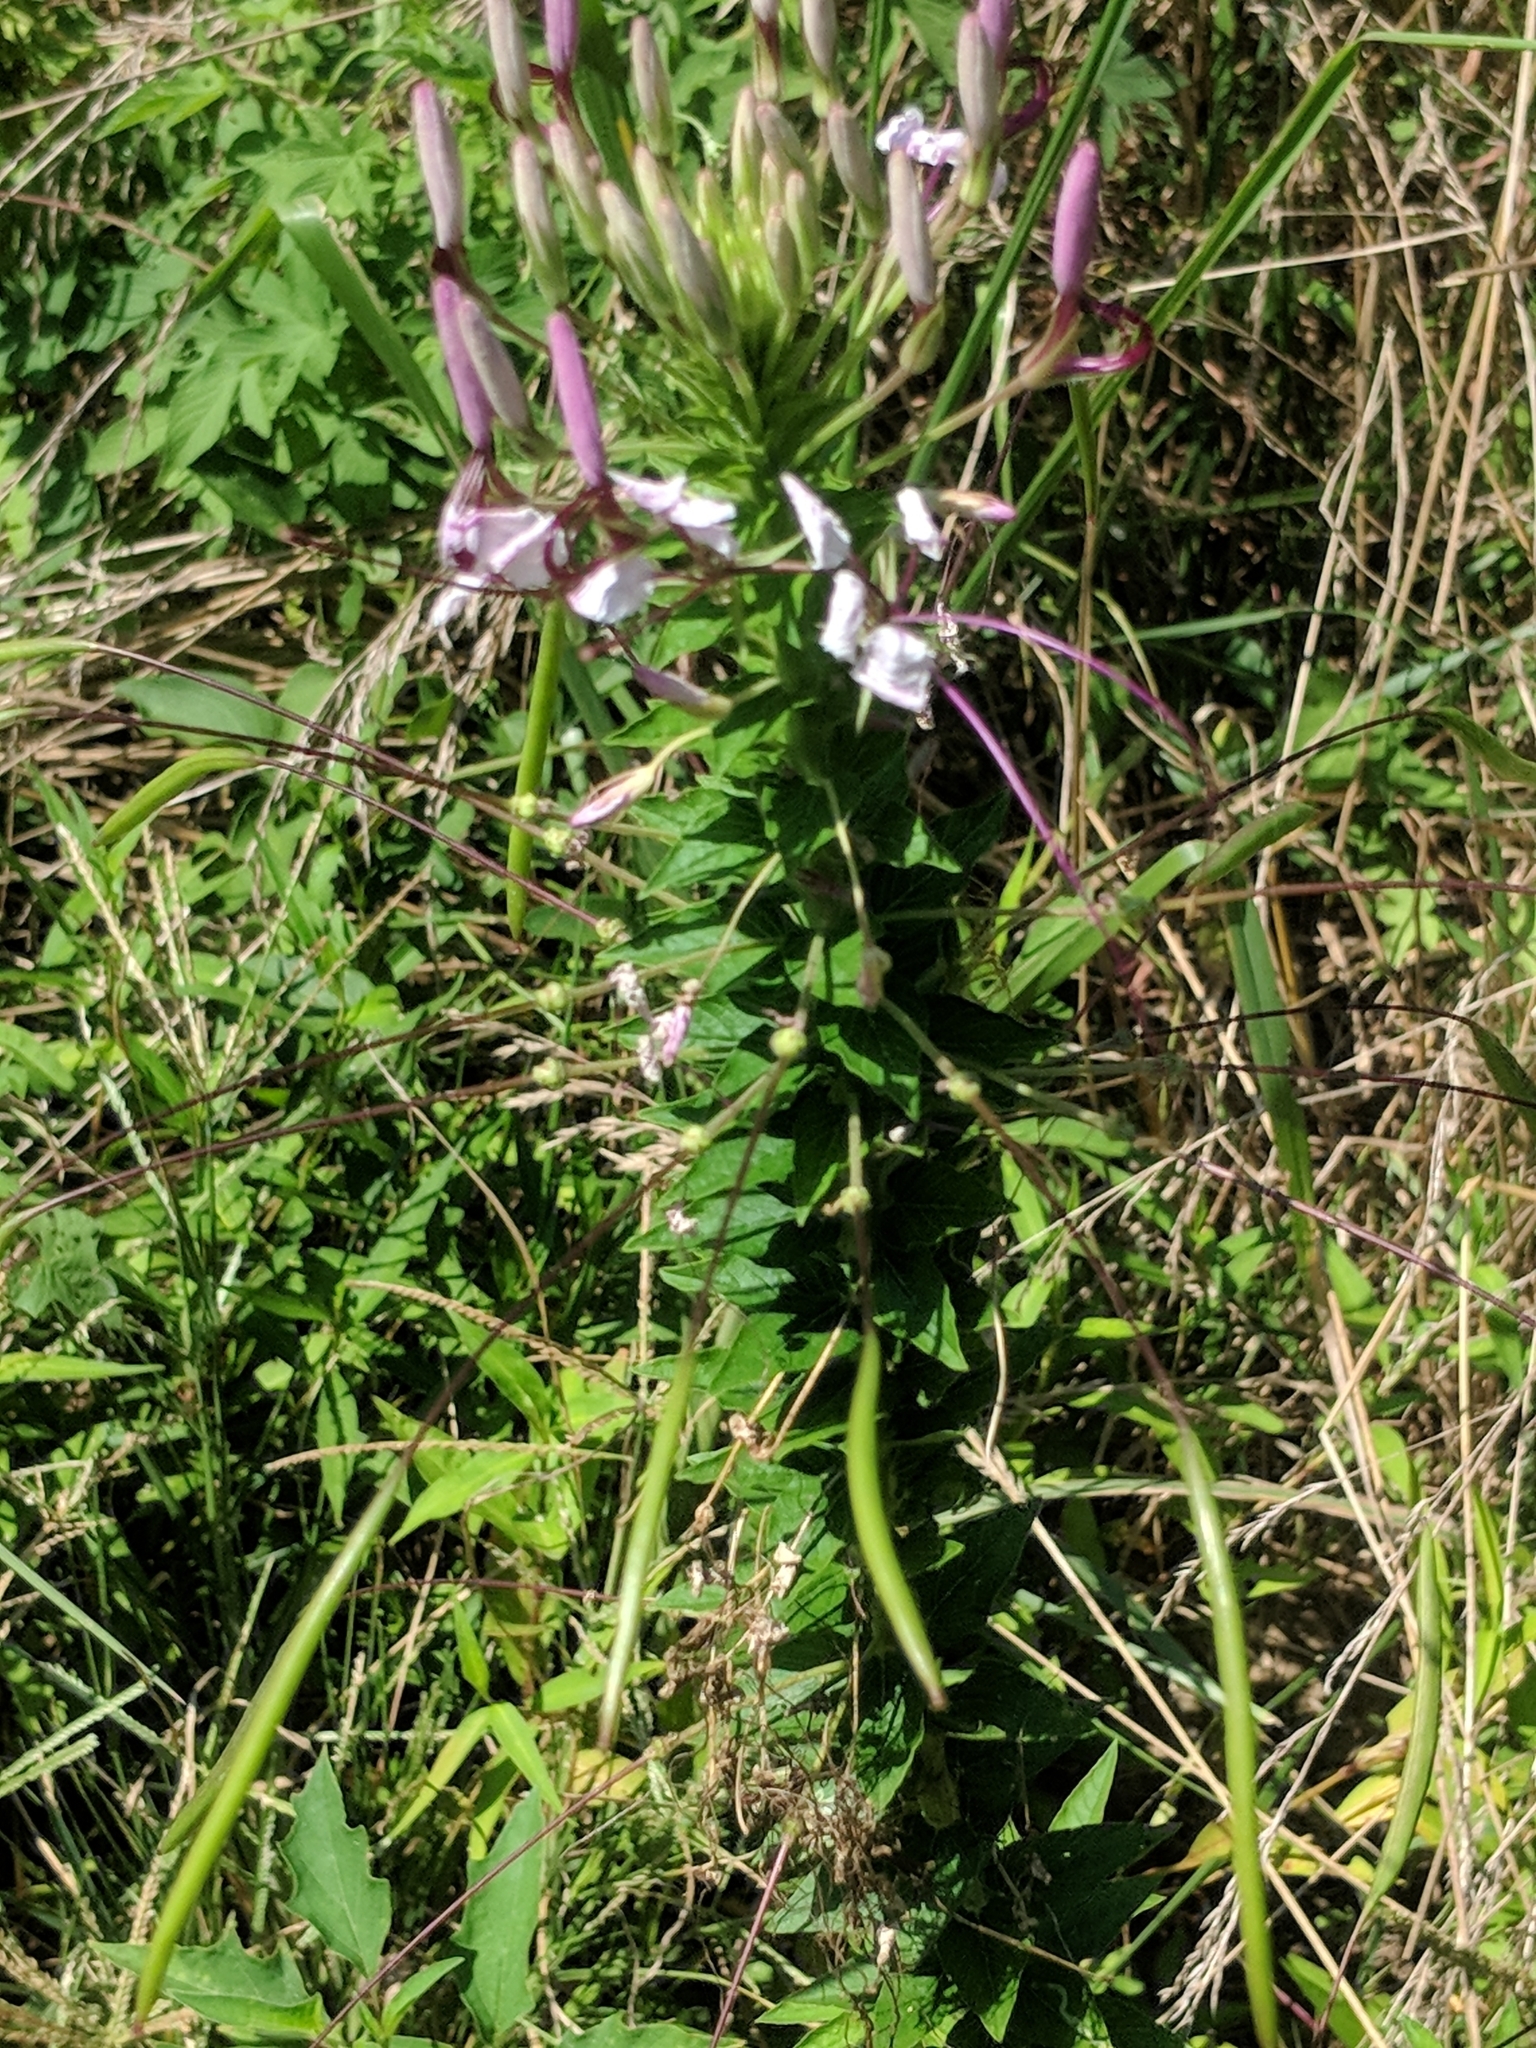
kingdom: Plantae
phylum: Tracheophyta
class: Magnoliopsida
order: Brassicales
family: Cleomaceae
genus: Tarenaya
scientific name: Tarenaya houtteana
